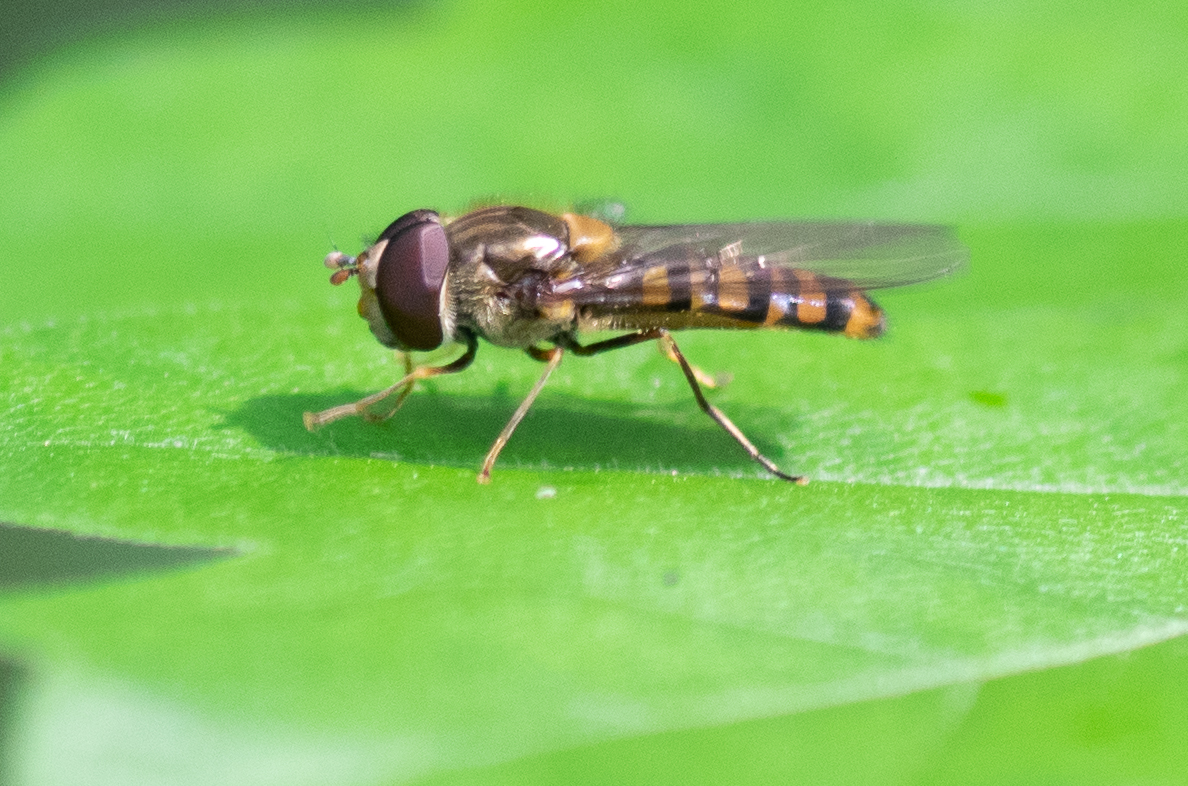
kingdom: Animalia
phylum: Arthropoda
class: Insecta
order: Diptera
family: Syrphidae
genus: Episyrphus
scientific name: Episyrphus balteatus
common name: Marmalade hoverfly
